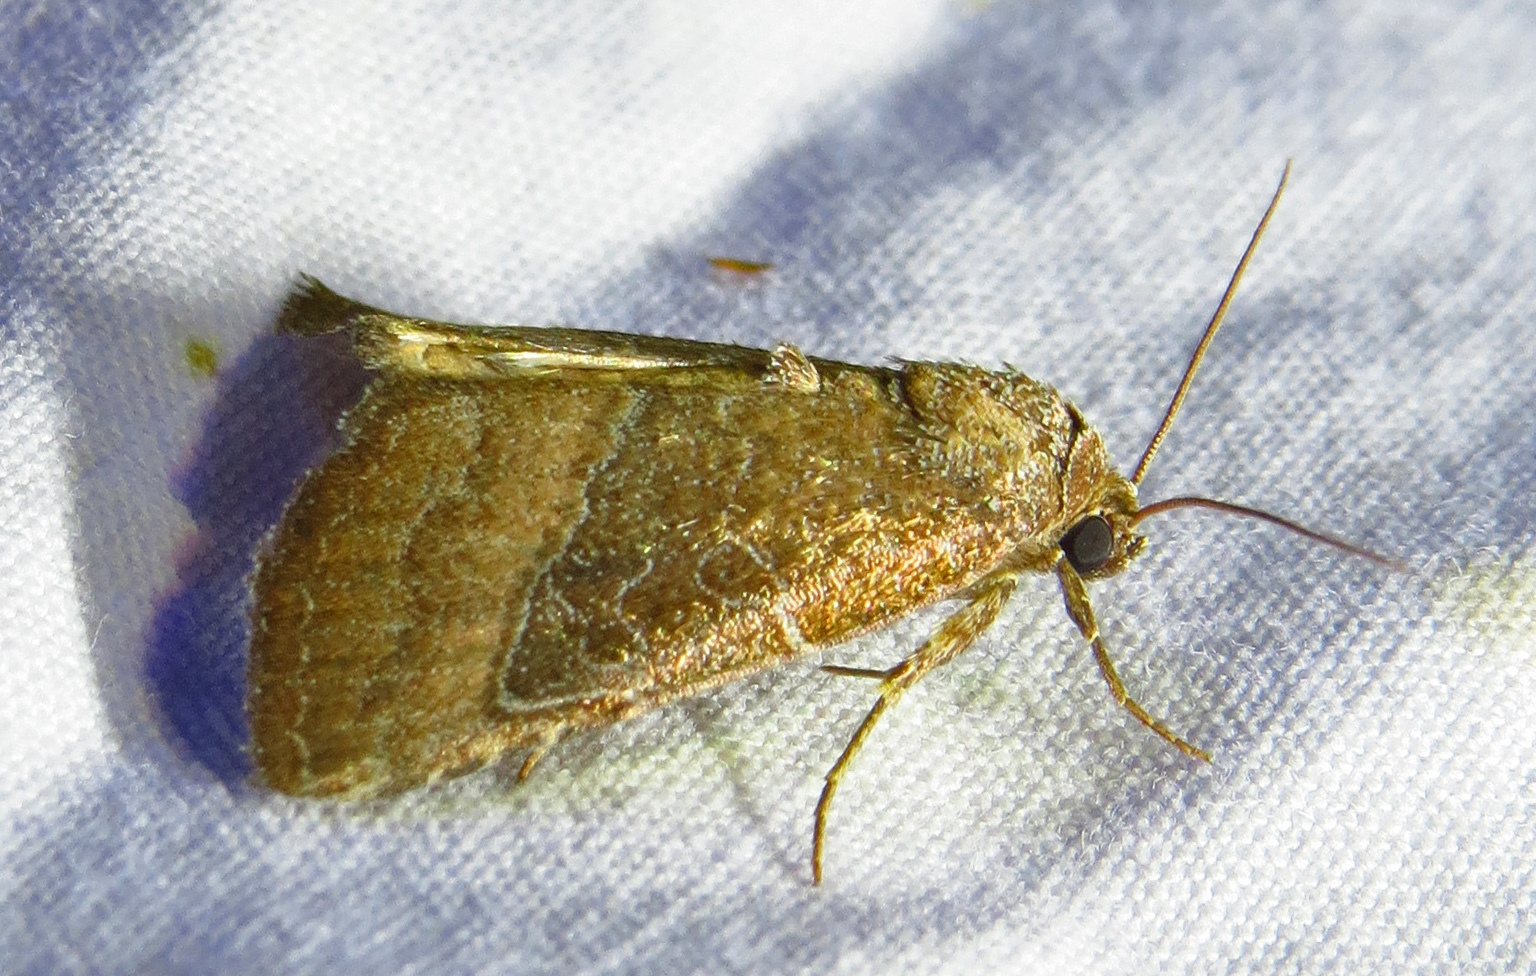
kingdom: Animalia
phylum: Arthropoda
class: Insecta
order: Lepidoptera
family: Noctuidae
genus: Galgula
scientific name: Galgula partita
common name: Wedgeling
